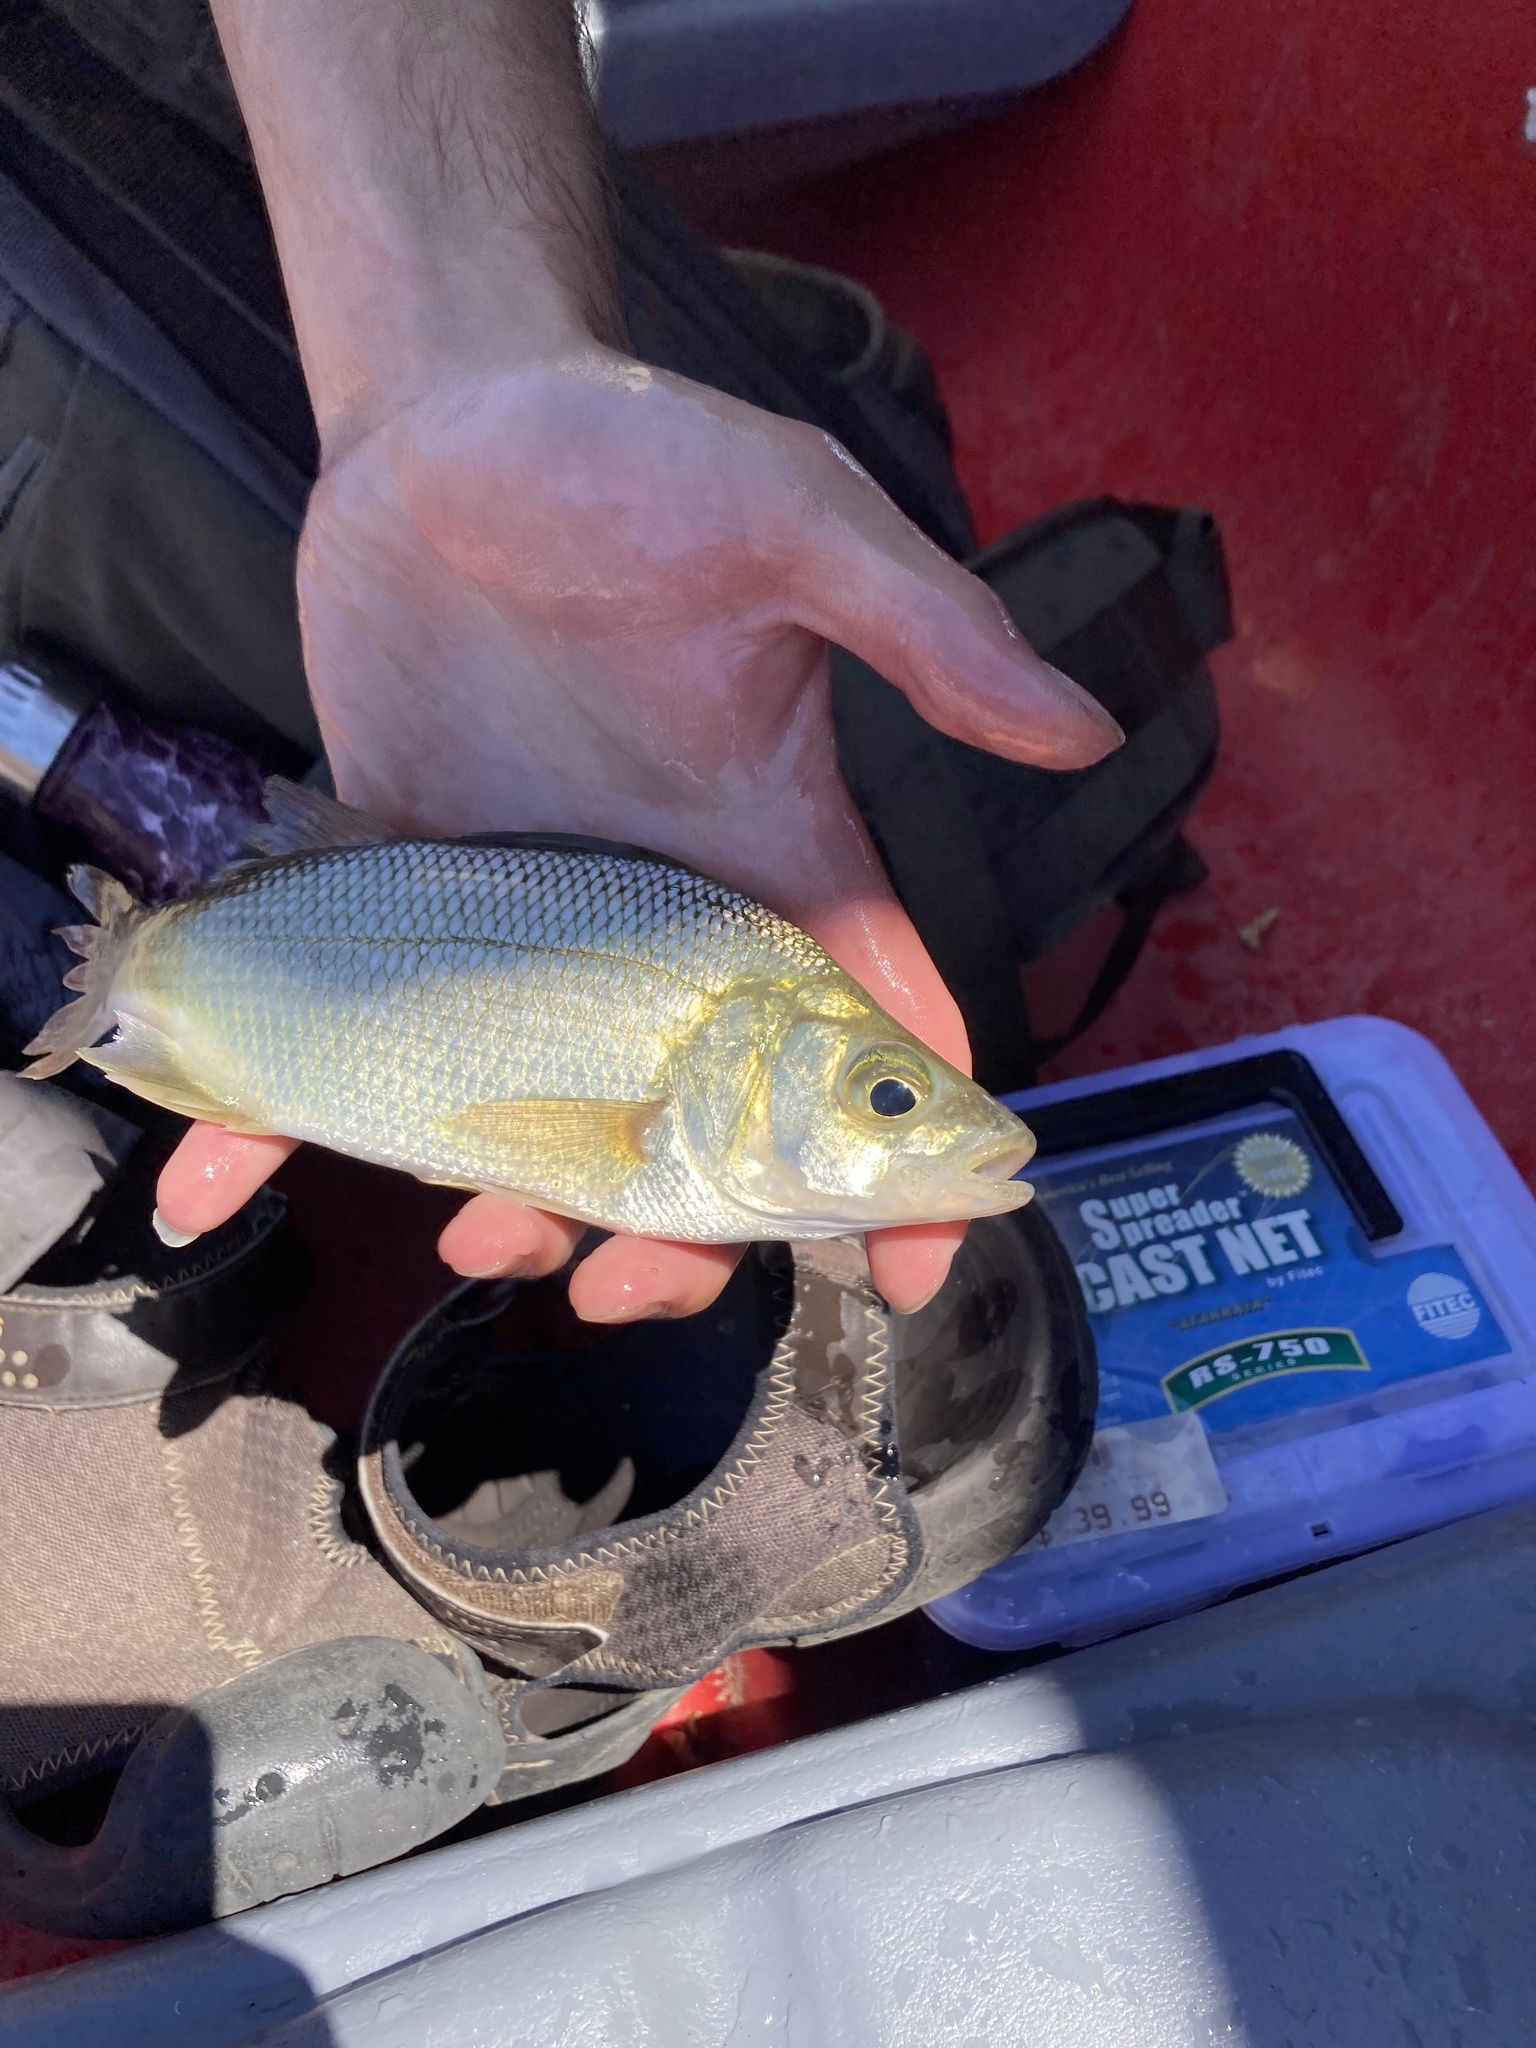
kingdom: Animalia
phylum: Chordata
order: Perciformes
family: Moronidae
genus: Morone
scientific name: Morone americana
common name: White perch
